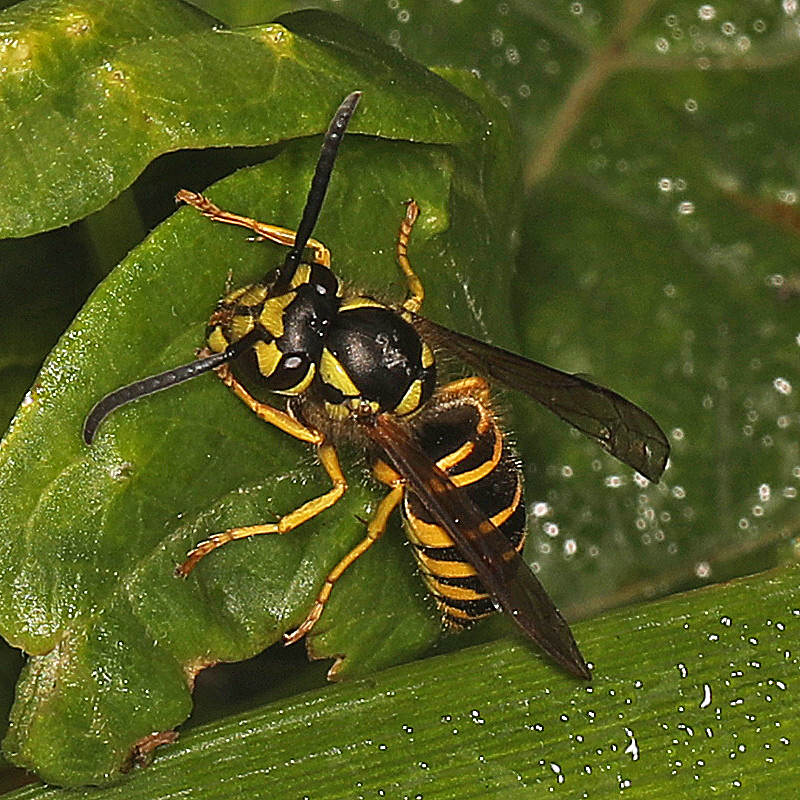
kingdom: Animalia
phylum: Arthropoda
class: Insecta
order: Hymenoptera
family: Vespidae
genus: Vespula
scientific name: Vespula maculifrons
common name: Eastern yellowjacket
